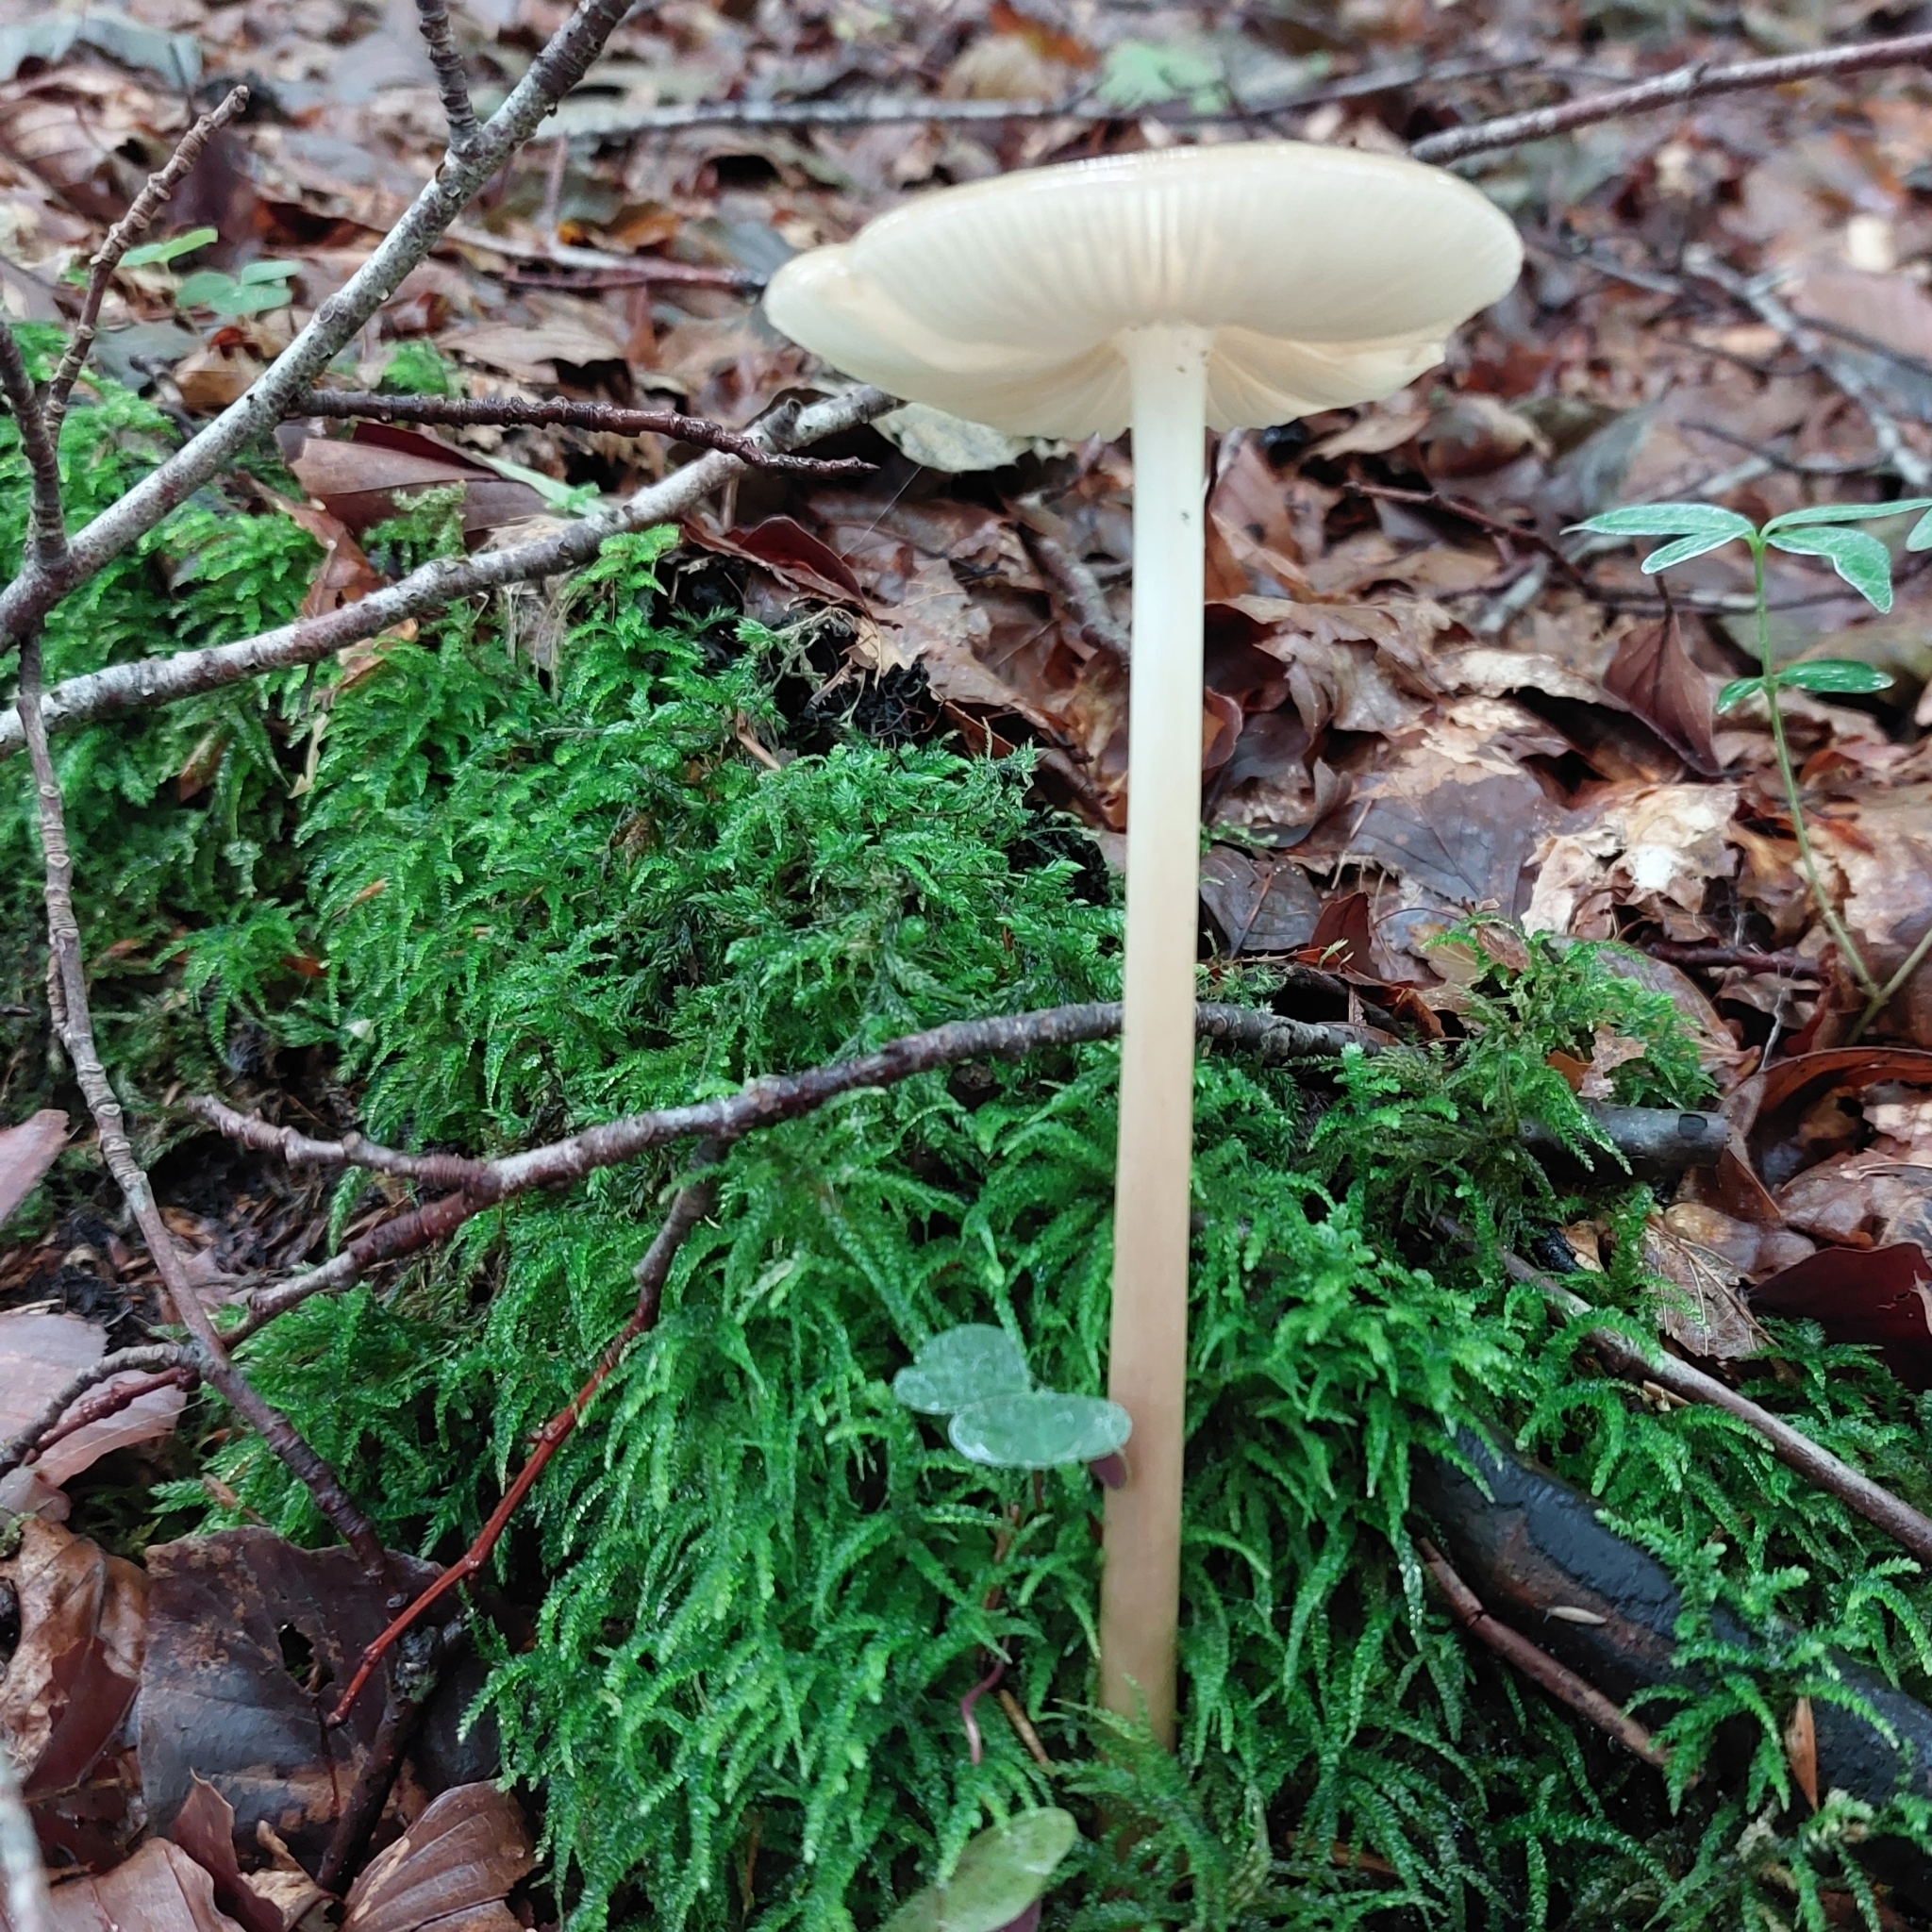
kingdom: Fungi
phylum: Basidiomycota
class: Agaricomycetes
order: Agaricales
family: Physalacriaceae
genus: Hymenopellis
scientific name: Hymenopellis radicata
